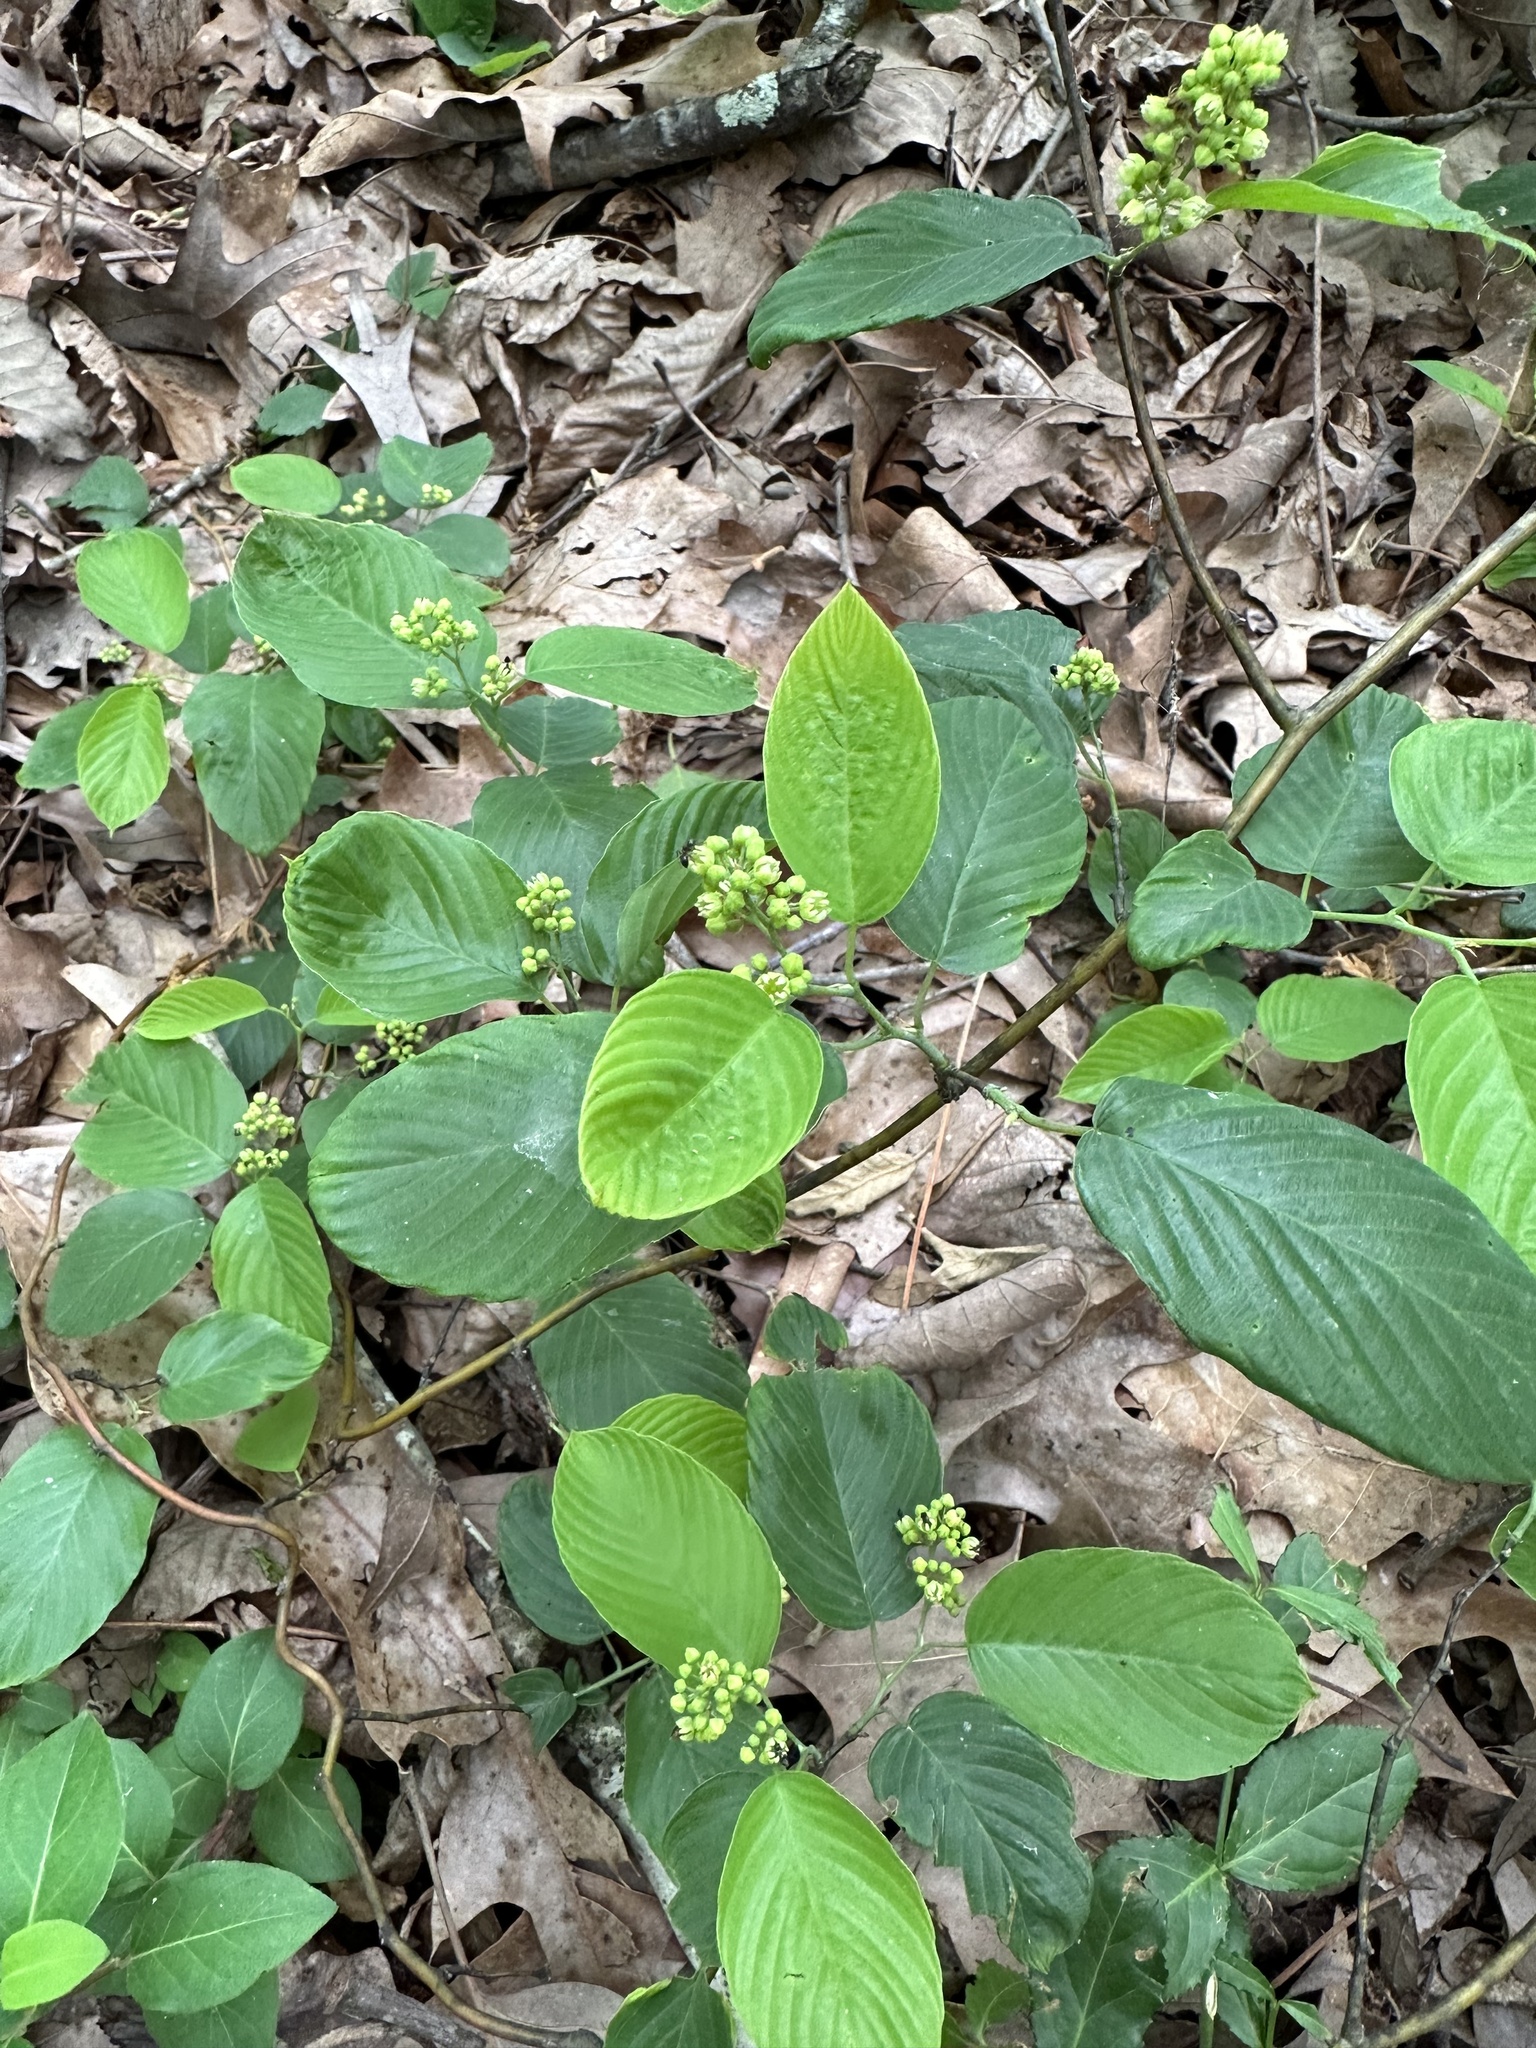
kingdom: Plantae
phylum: Tracheophyta
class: Magnoliopsida
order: Rosales
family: Rhamnaceae
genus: Berchemia
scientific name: Berchemia scandens
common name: Supplejack
